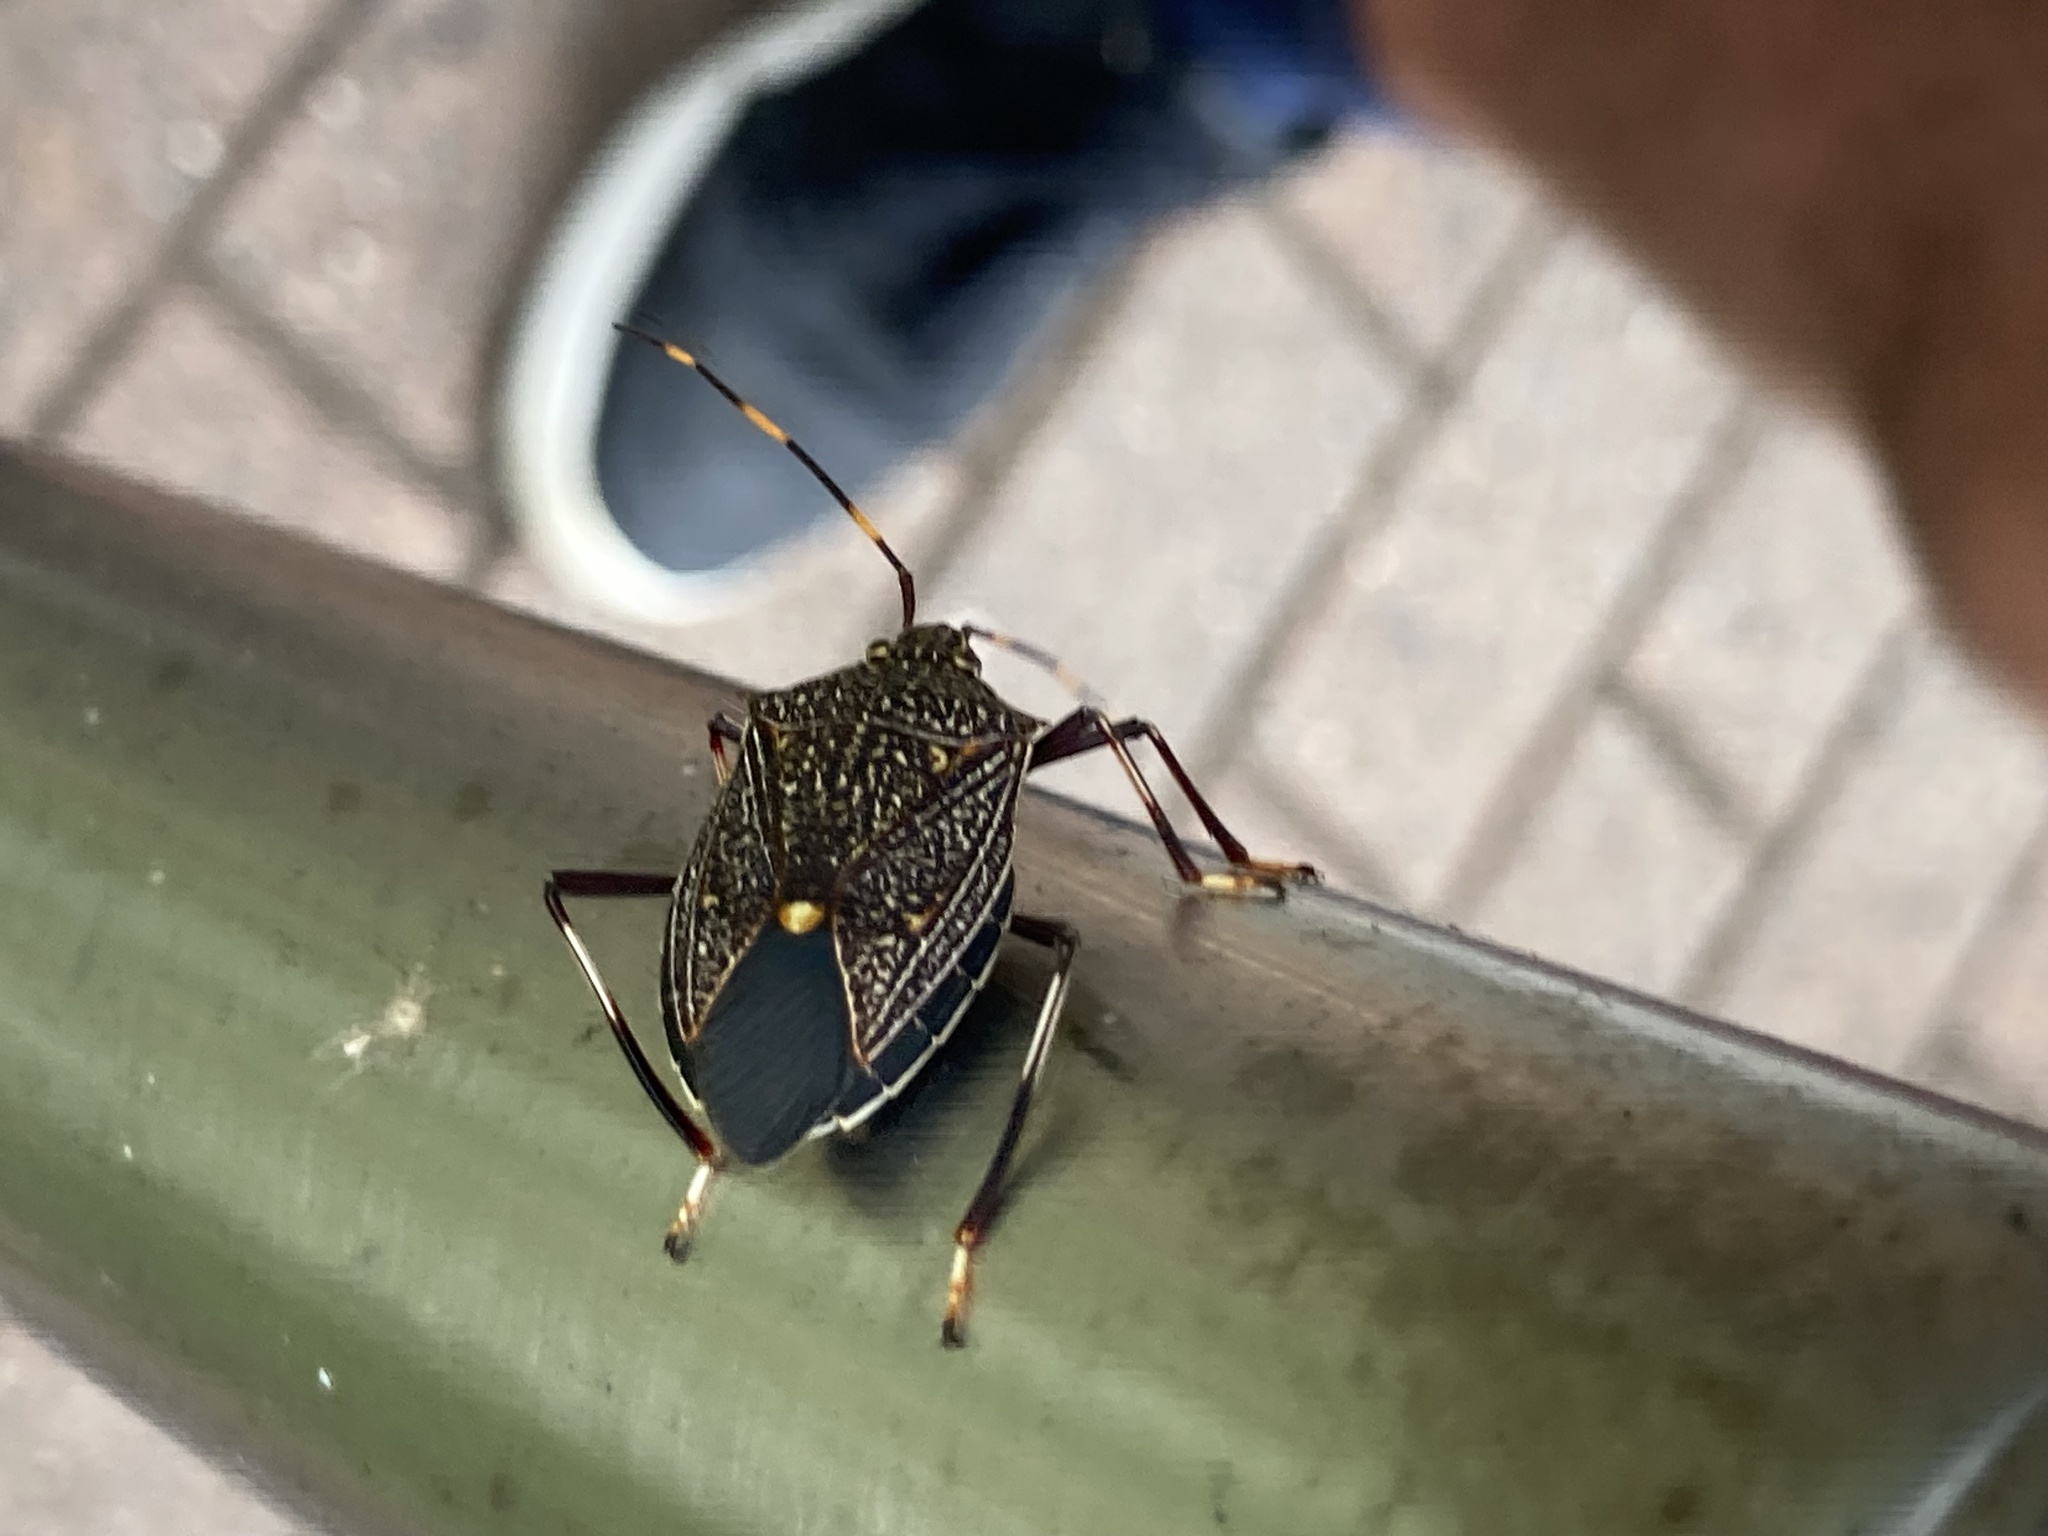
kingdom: Animalia
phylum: Arthropoda
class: Insecta
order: Hemiptera
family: Pentatomidae
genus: Poecilometis
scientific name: Poecilometis
